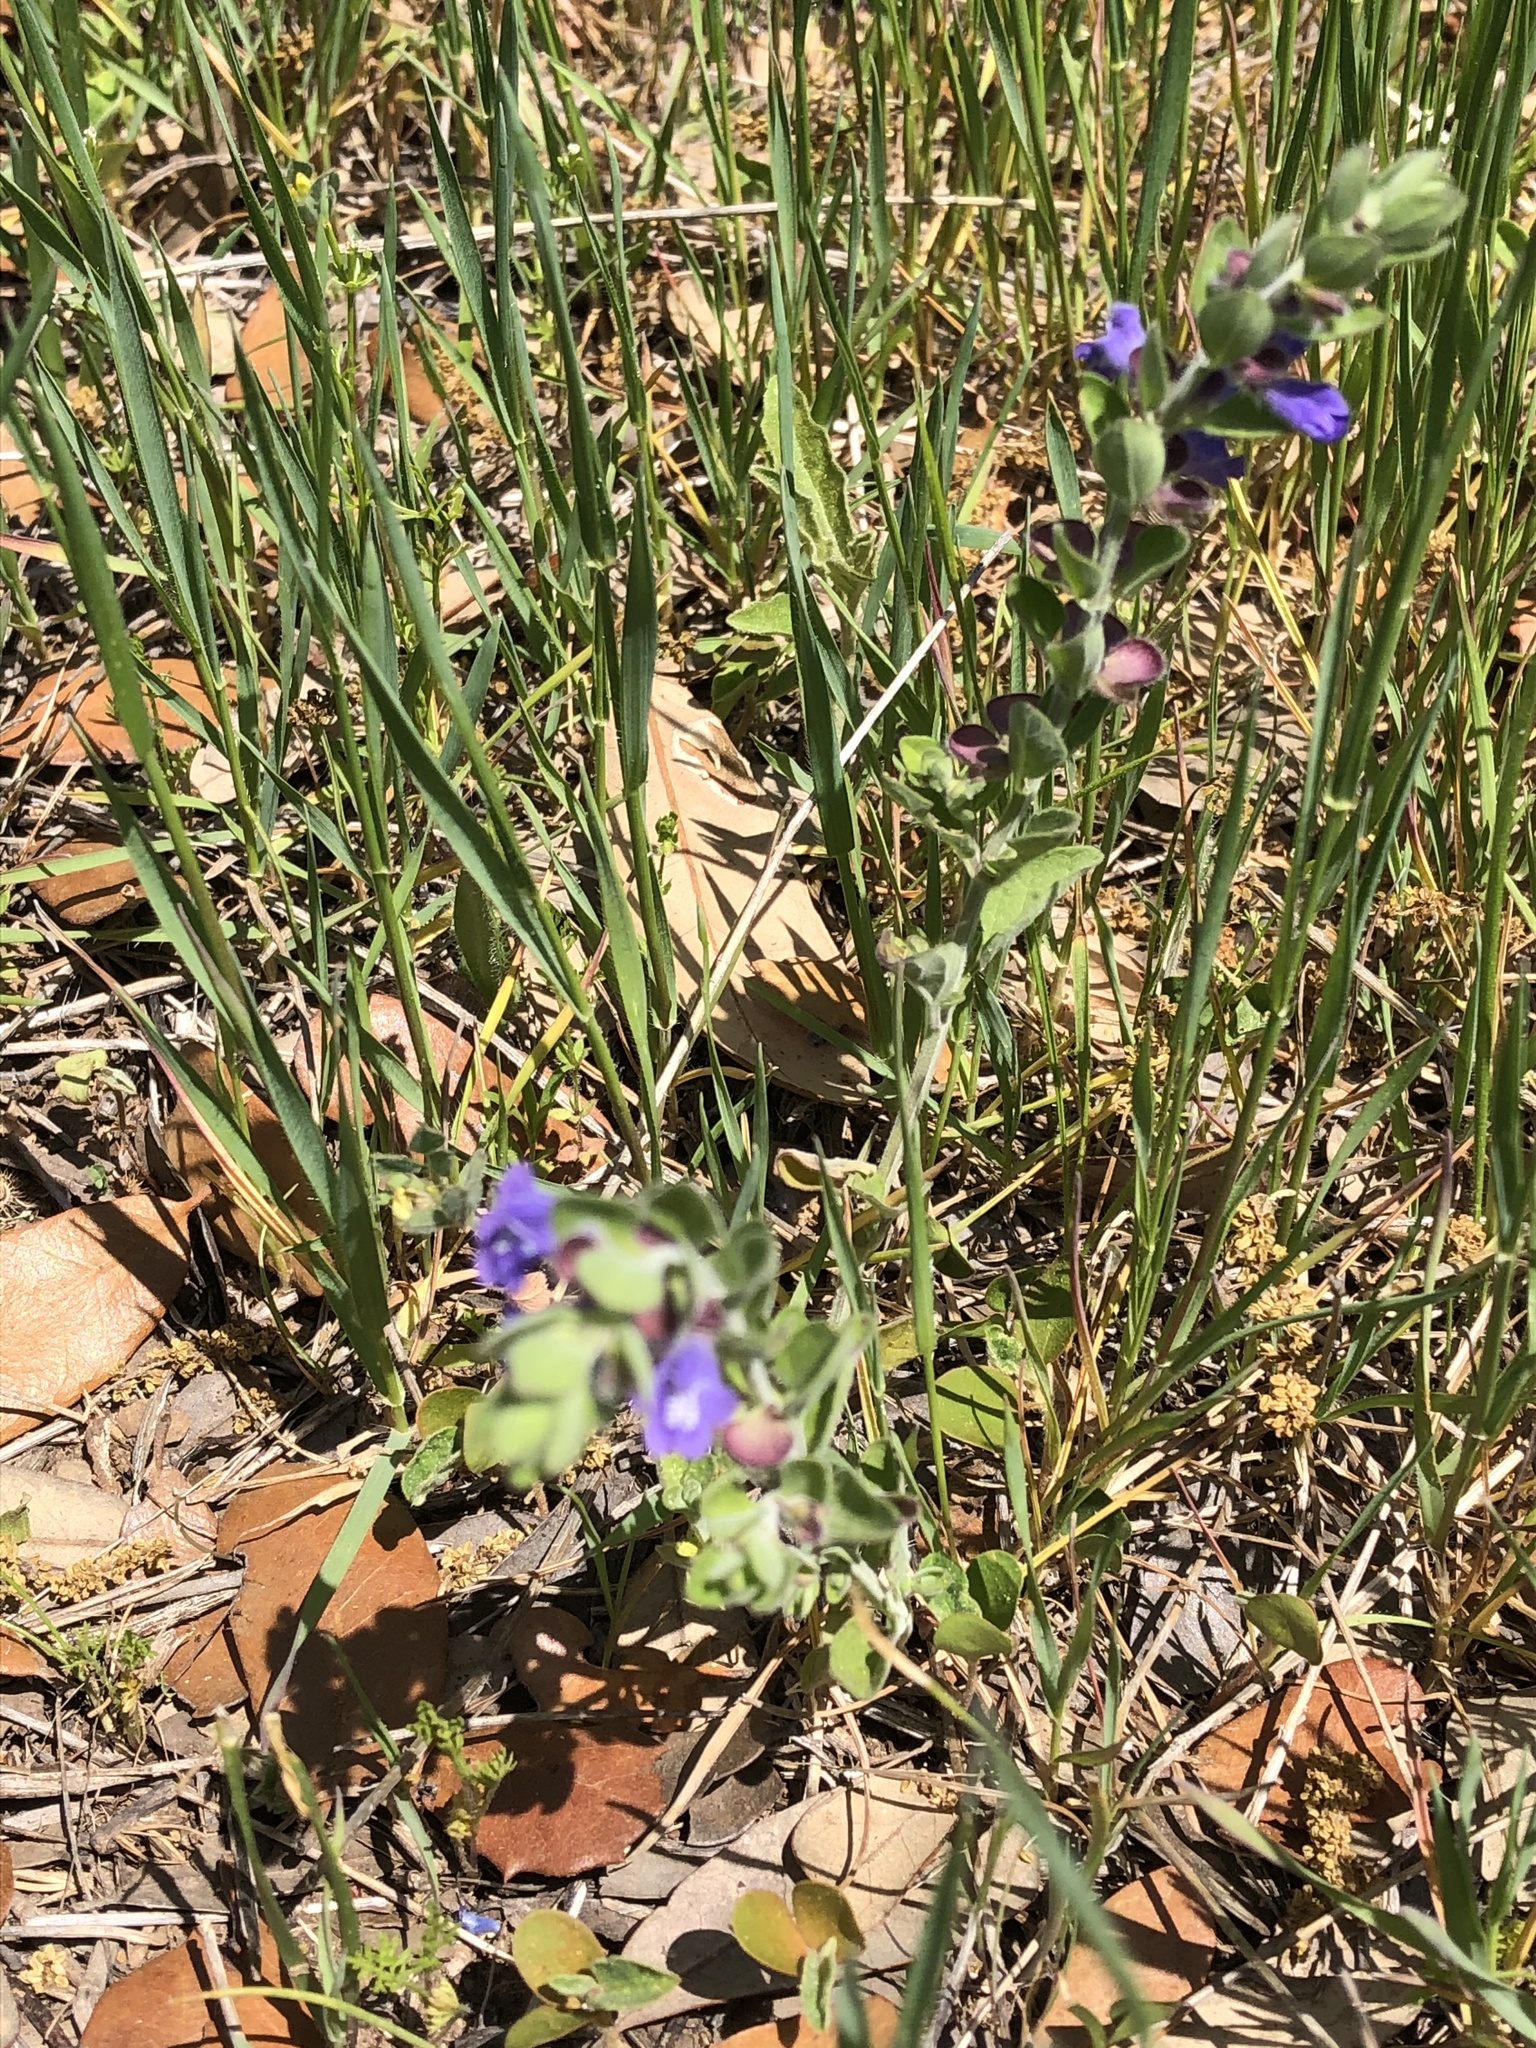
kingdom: Plantae
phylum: Tracheophyta
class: Magnoliopsida
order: Lamiales
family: Lamiaceae
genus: Scutellaria
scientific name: Scutellaria drummondii
